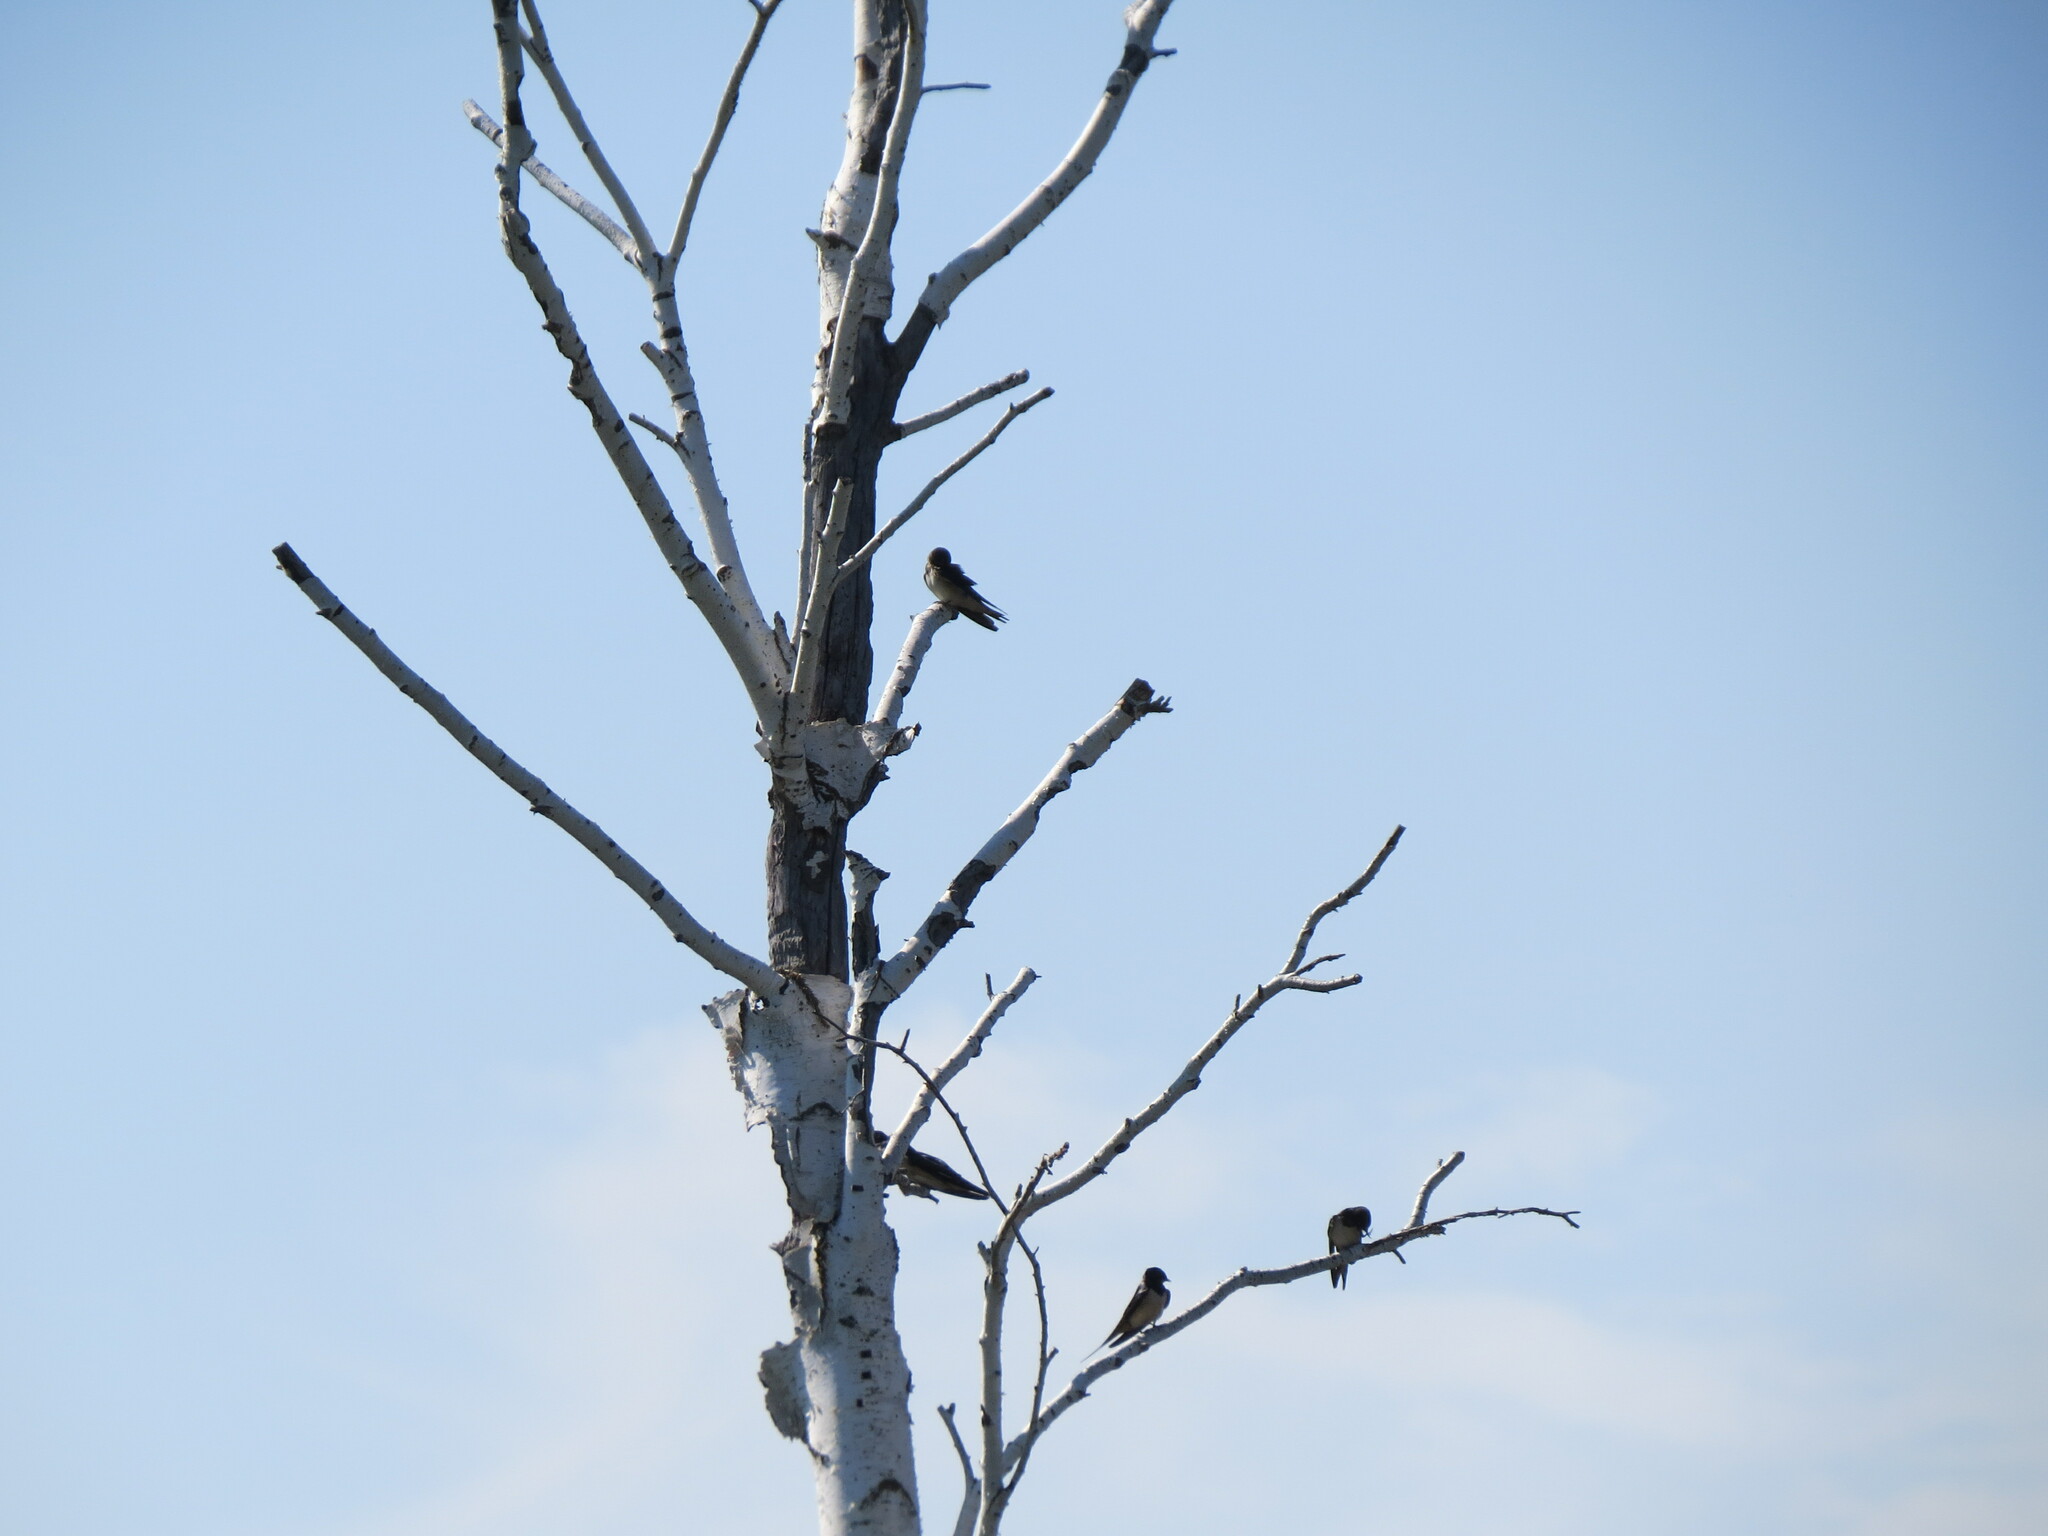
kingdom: Animalia
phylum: Chordata
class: Aves
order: Passeriformes
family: Hirundinidae
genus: Hirundo
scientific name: Hirundo rustica
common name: Barn swallow
